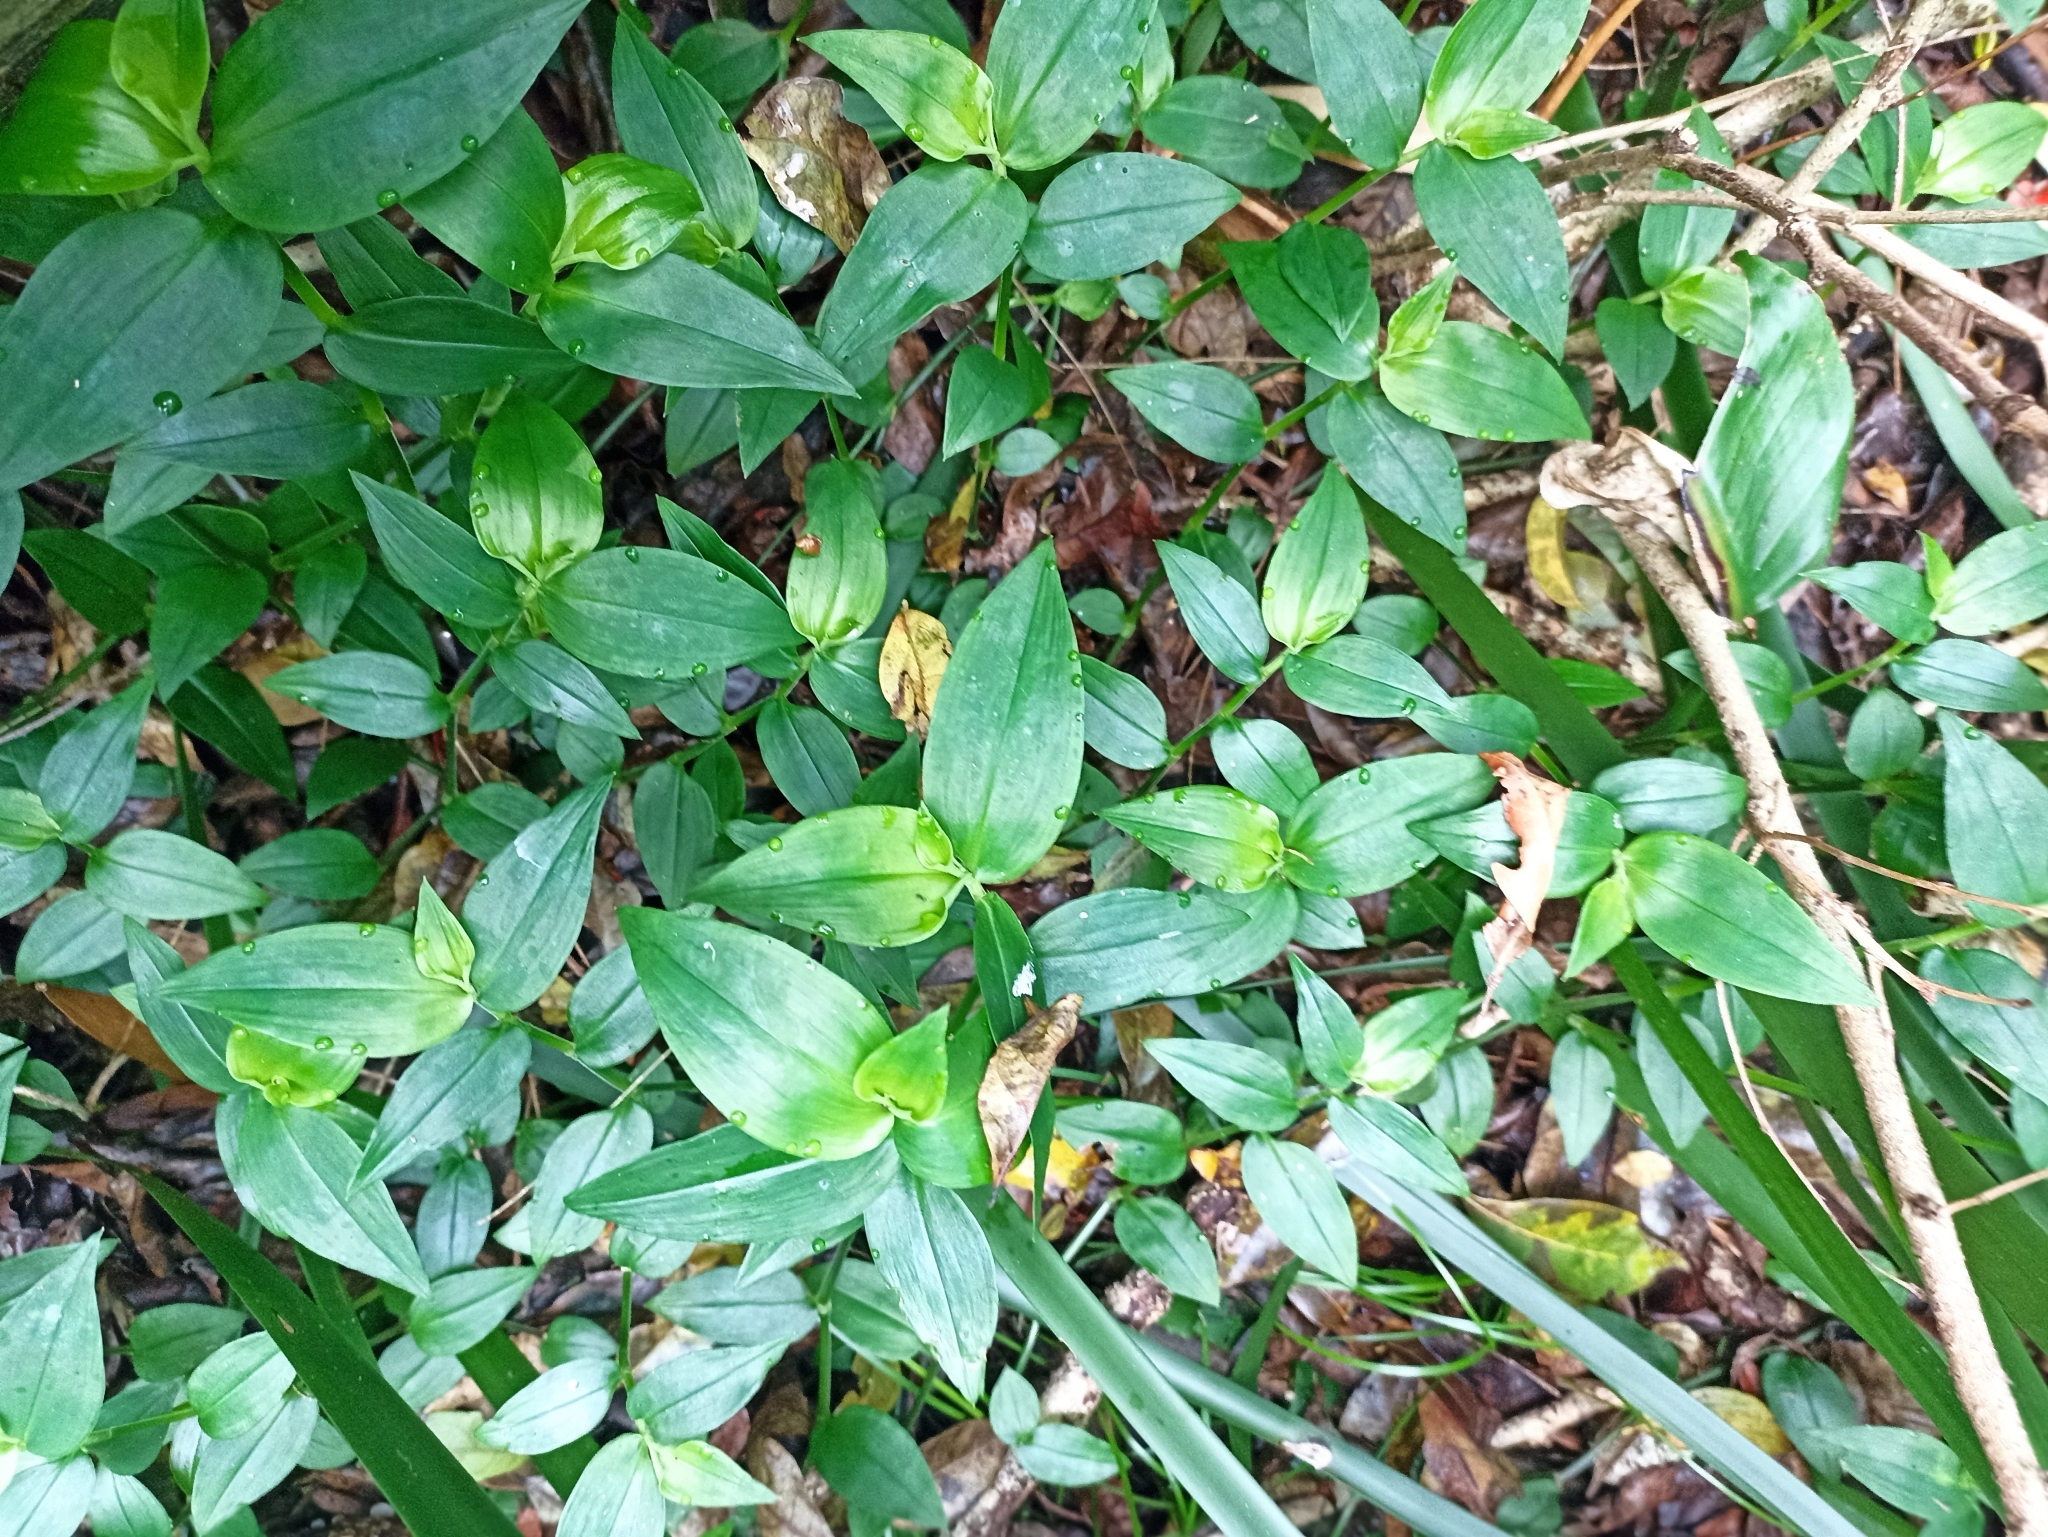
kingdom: Plantae
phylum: Tracheophyta
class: Liliopsida
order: Commelinales
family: Commelinaceae
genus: Tradescantia
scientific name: Tradescantia fluminensis
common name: Wandering-jew
